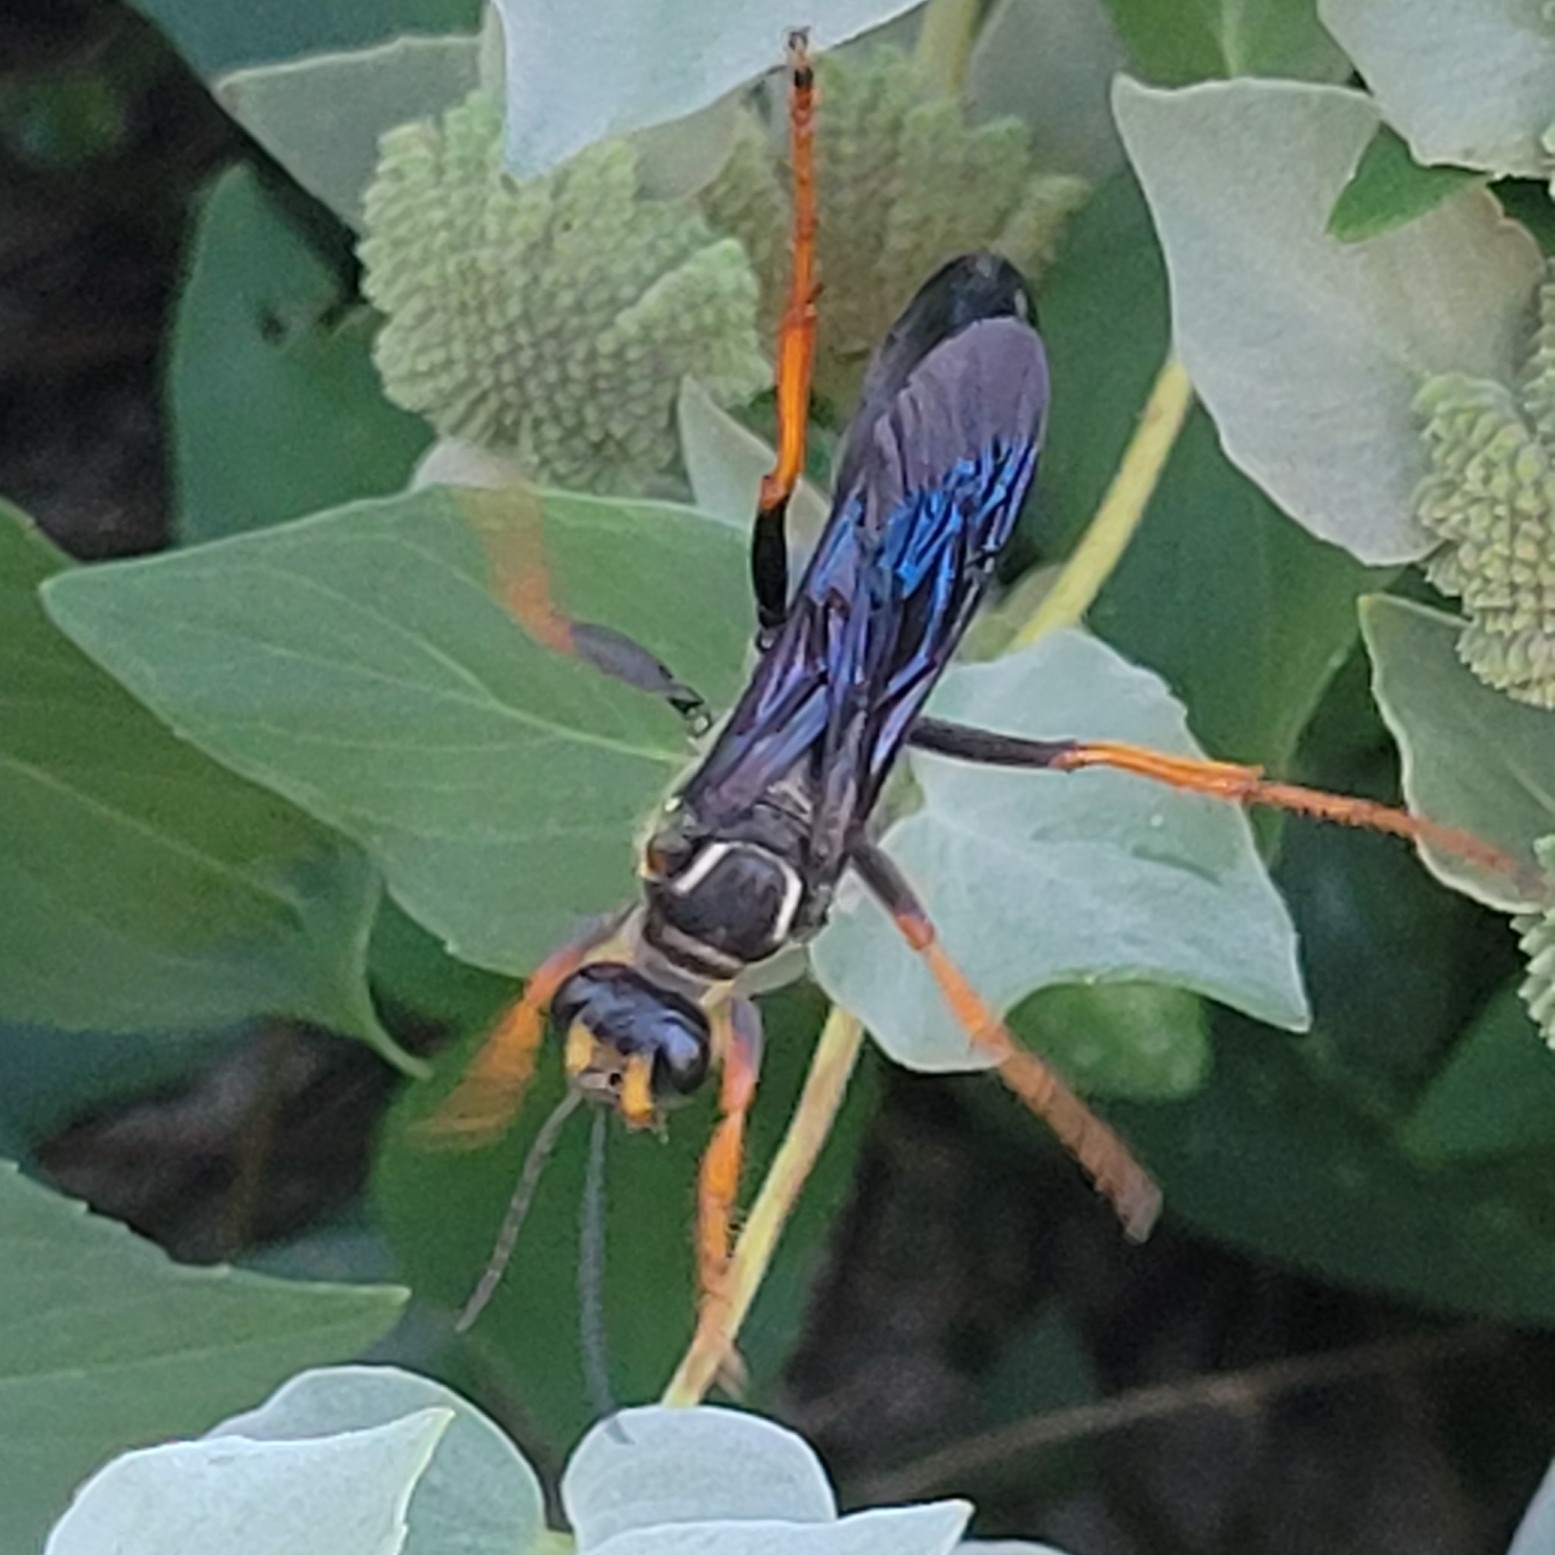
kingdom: Animalia
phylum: Arthropoda
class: Insecta
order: Hymenoptera
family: Sphecidae
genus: Sphex
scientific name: Sphex flavovestitus
